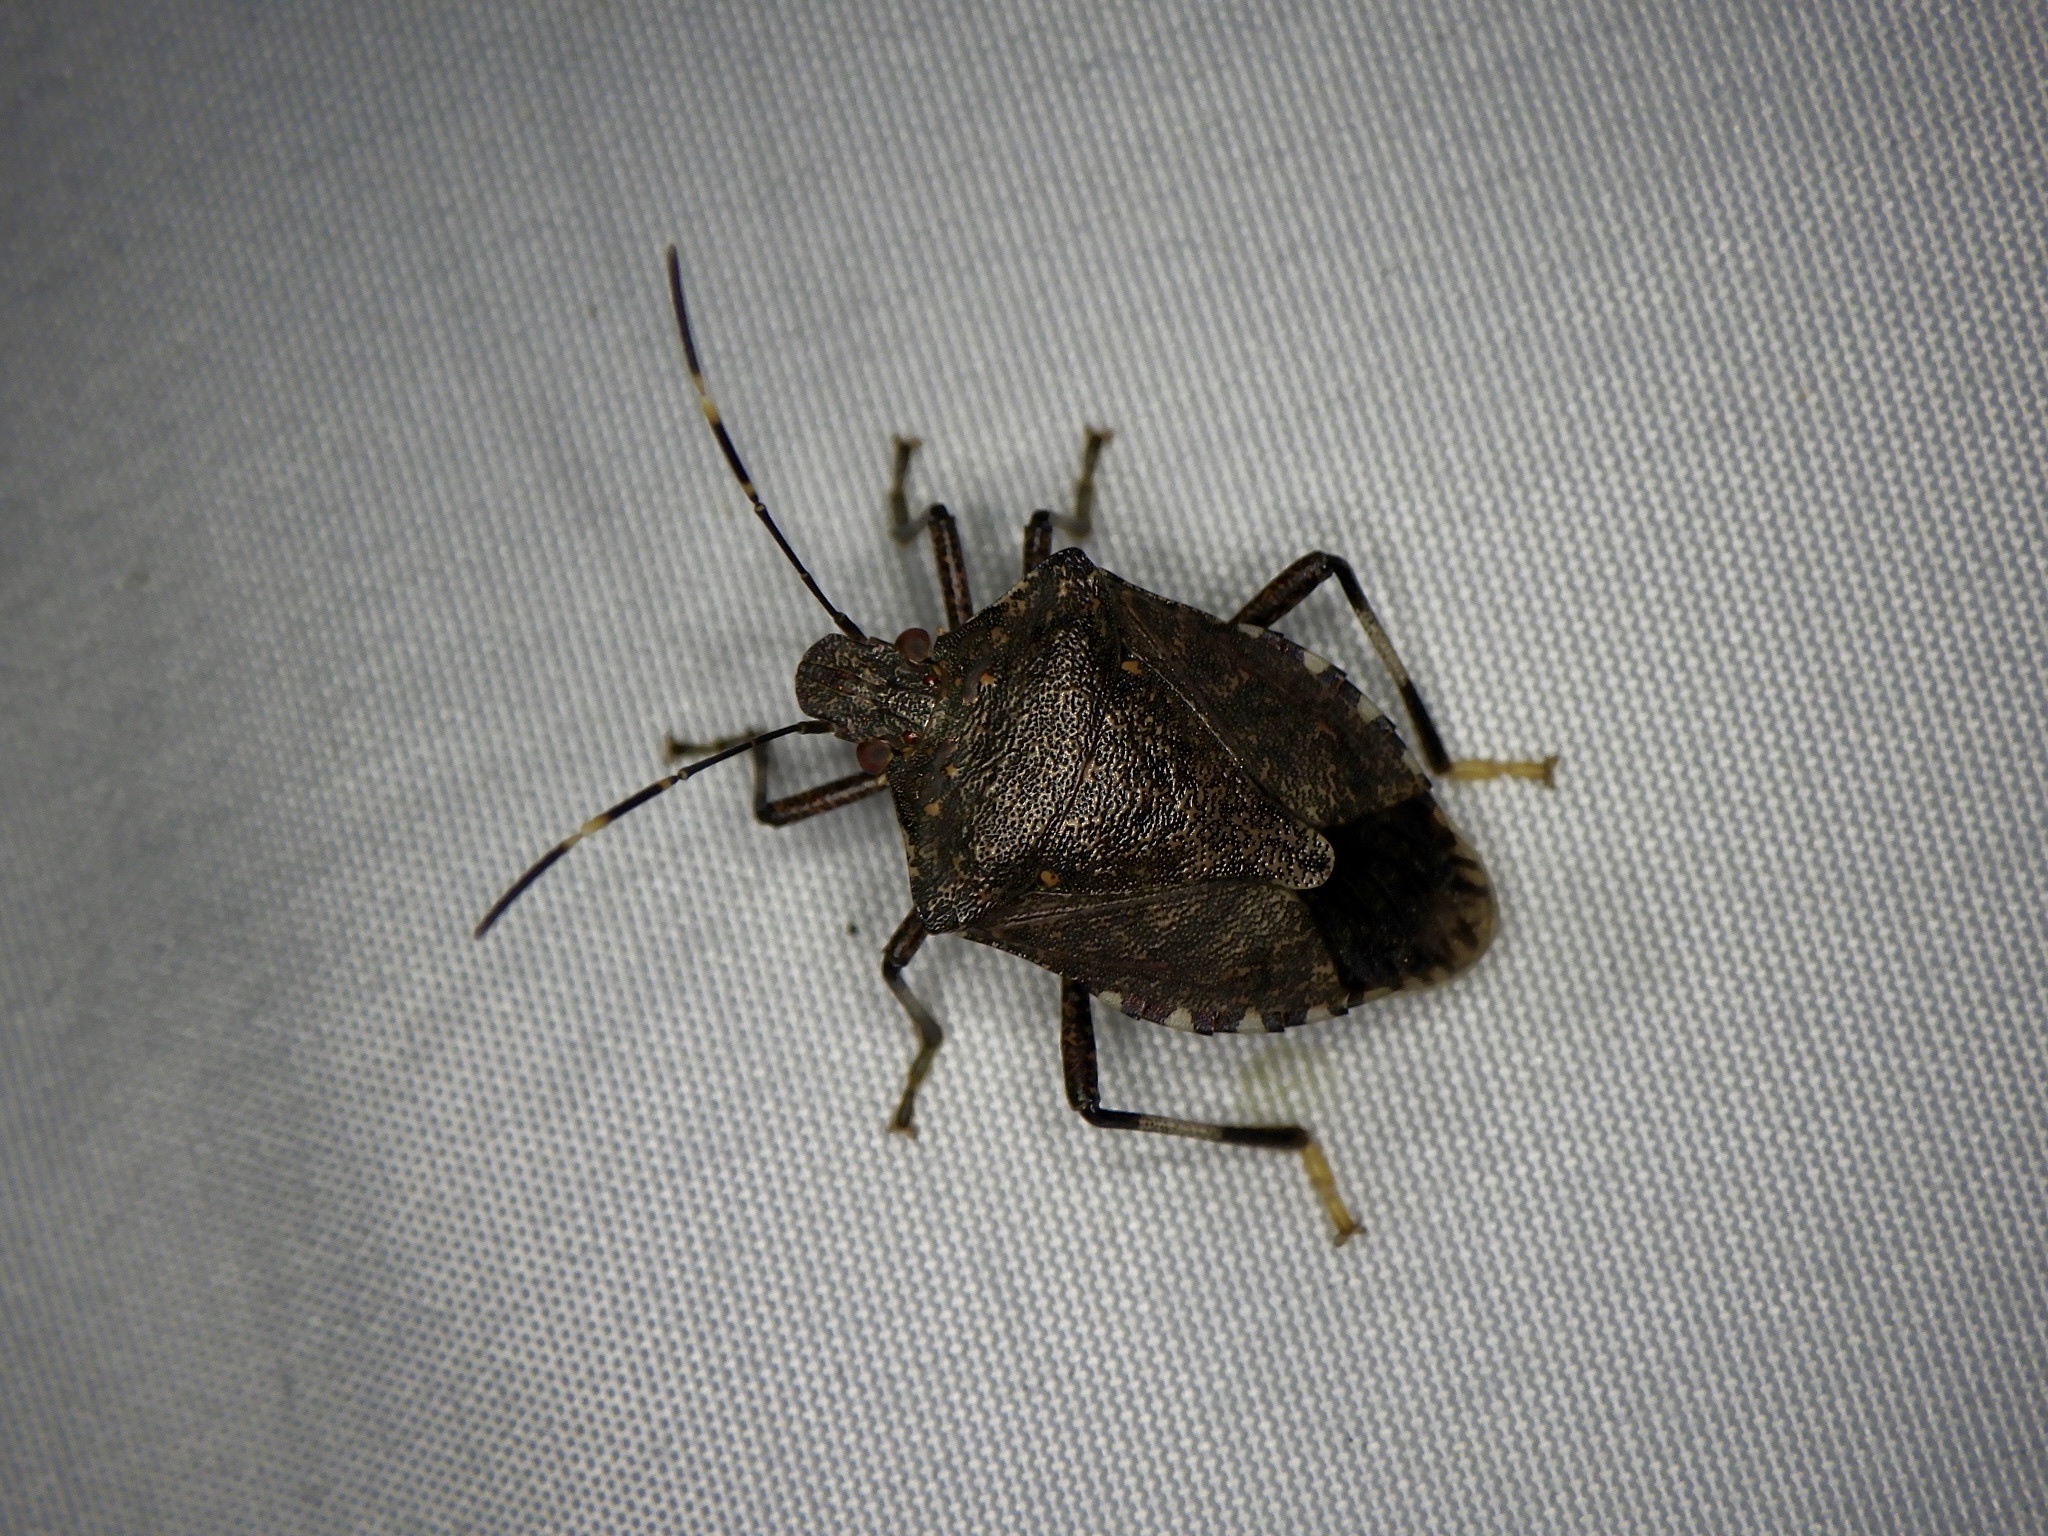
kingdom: Animalia
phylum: Arthropoda
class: Insecta
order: Hemiptera
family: Pentatomidae
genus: Halyomorpha
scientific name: Halyomorpha halys
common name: Brown marmorated stink bug
